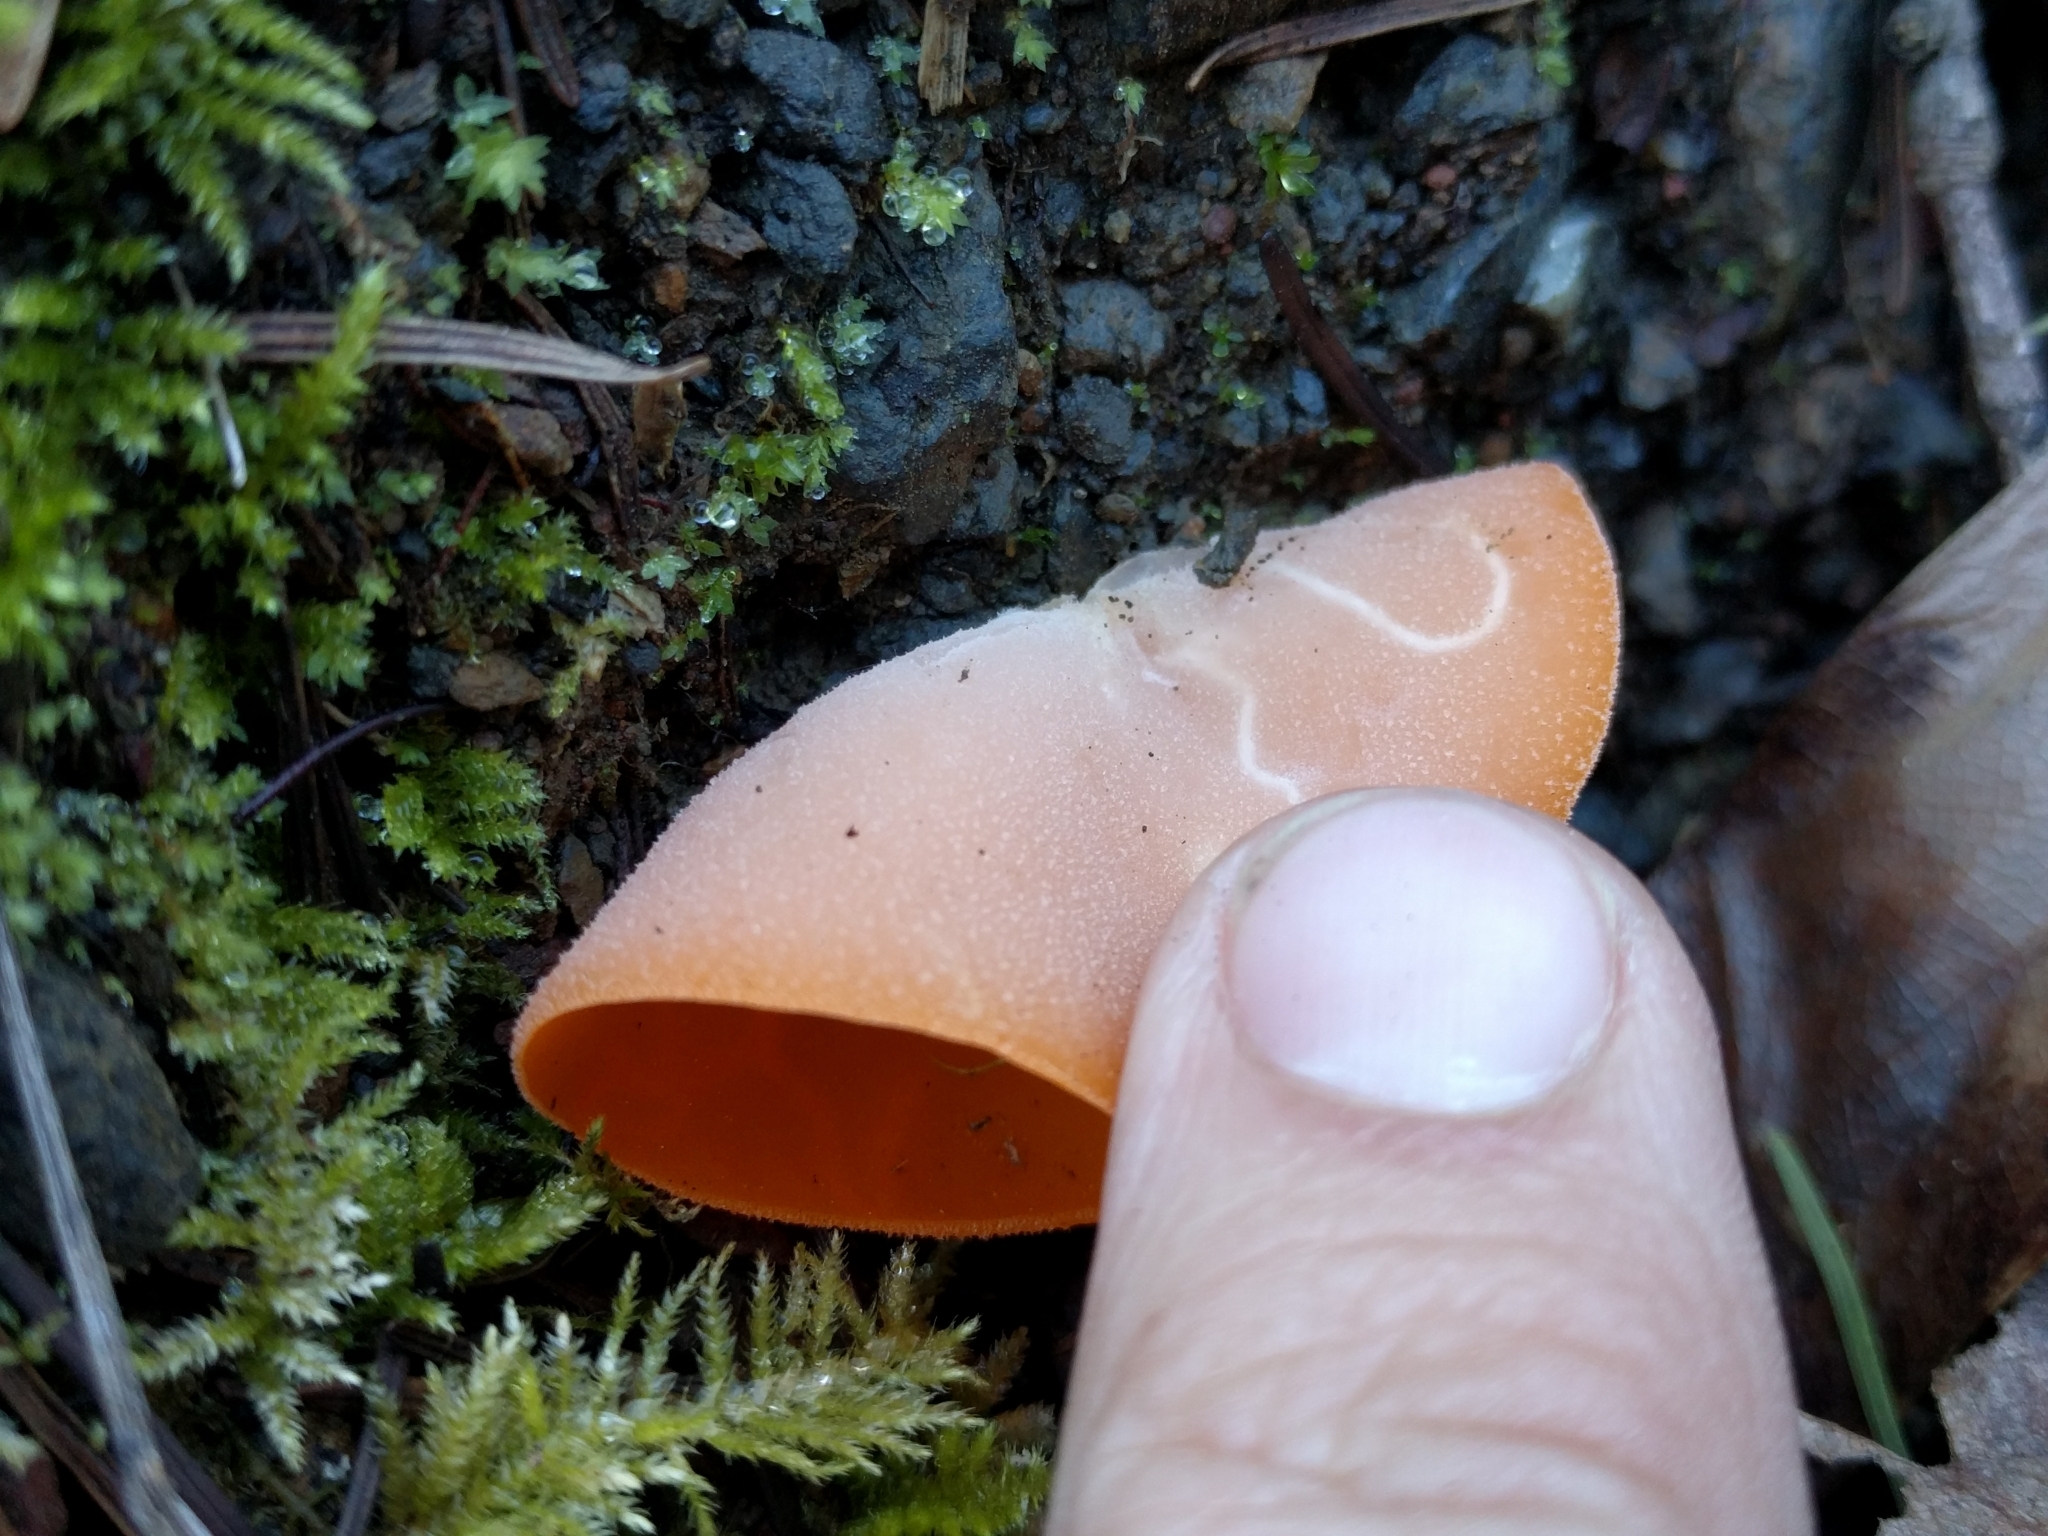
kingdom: Fungi
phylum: Ascomycota
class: Pezizomycetes
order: Pezizales
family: Pyronemataceae
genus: Aleuria
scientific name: Aleuria aurantia
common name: Orange peel fungus
